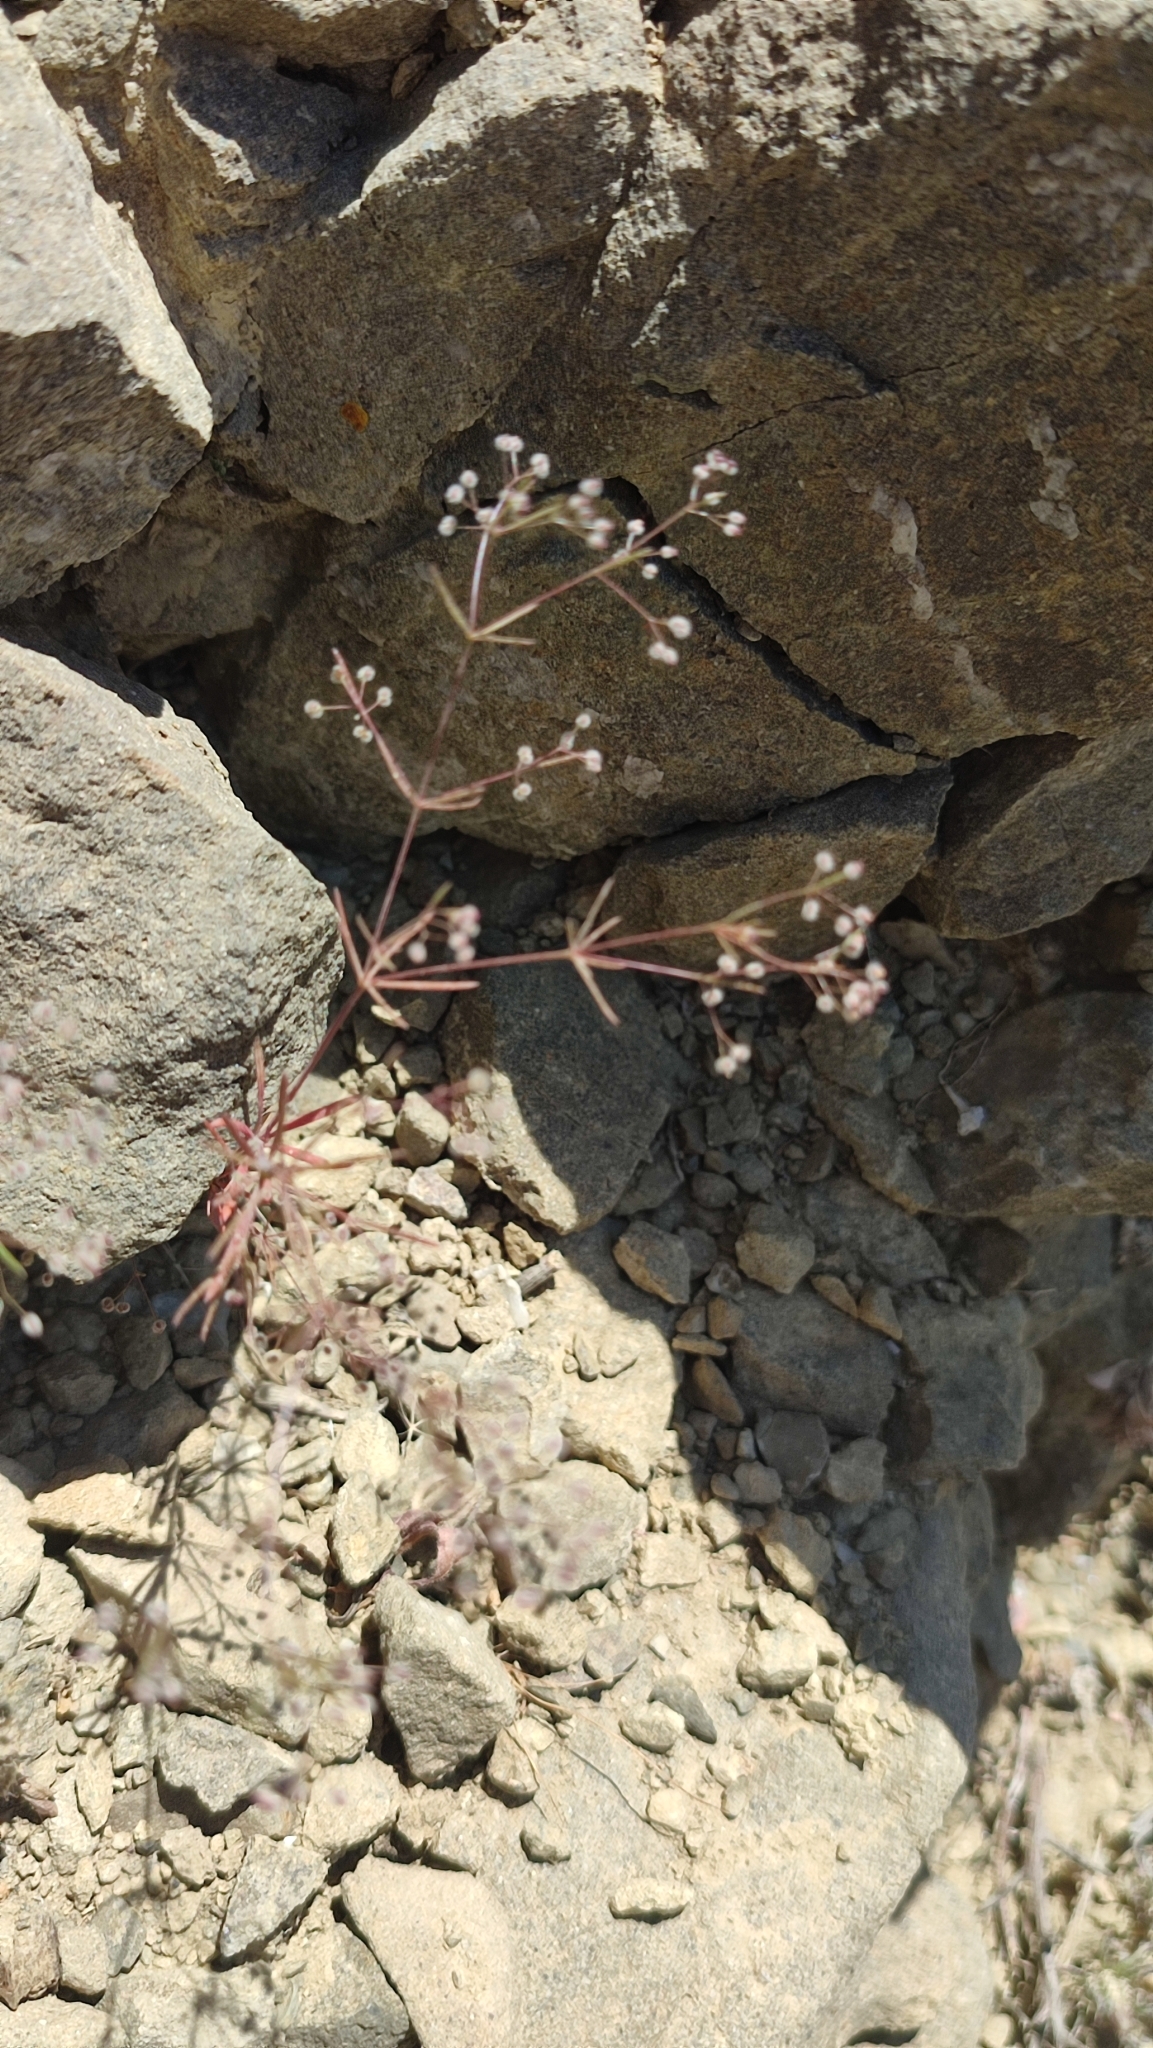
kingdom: Plantae
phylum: Tracheophyta
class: Magnoliopsida
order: Gentianales
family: Rubiaceae
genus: Galium
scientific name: Galium setaceum
